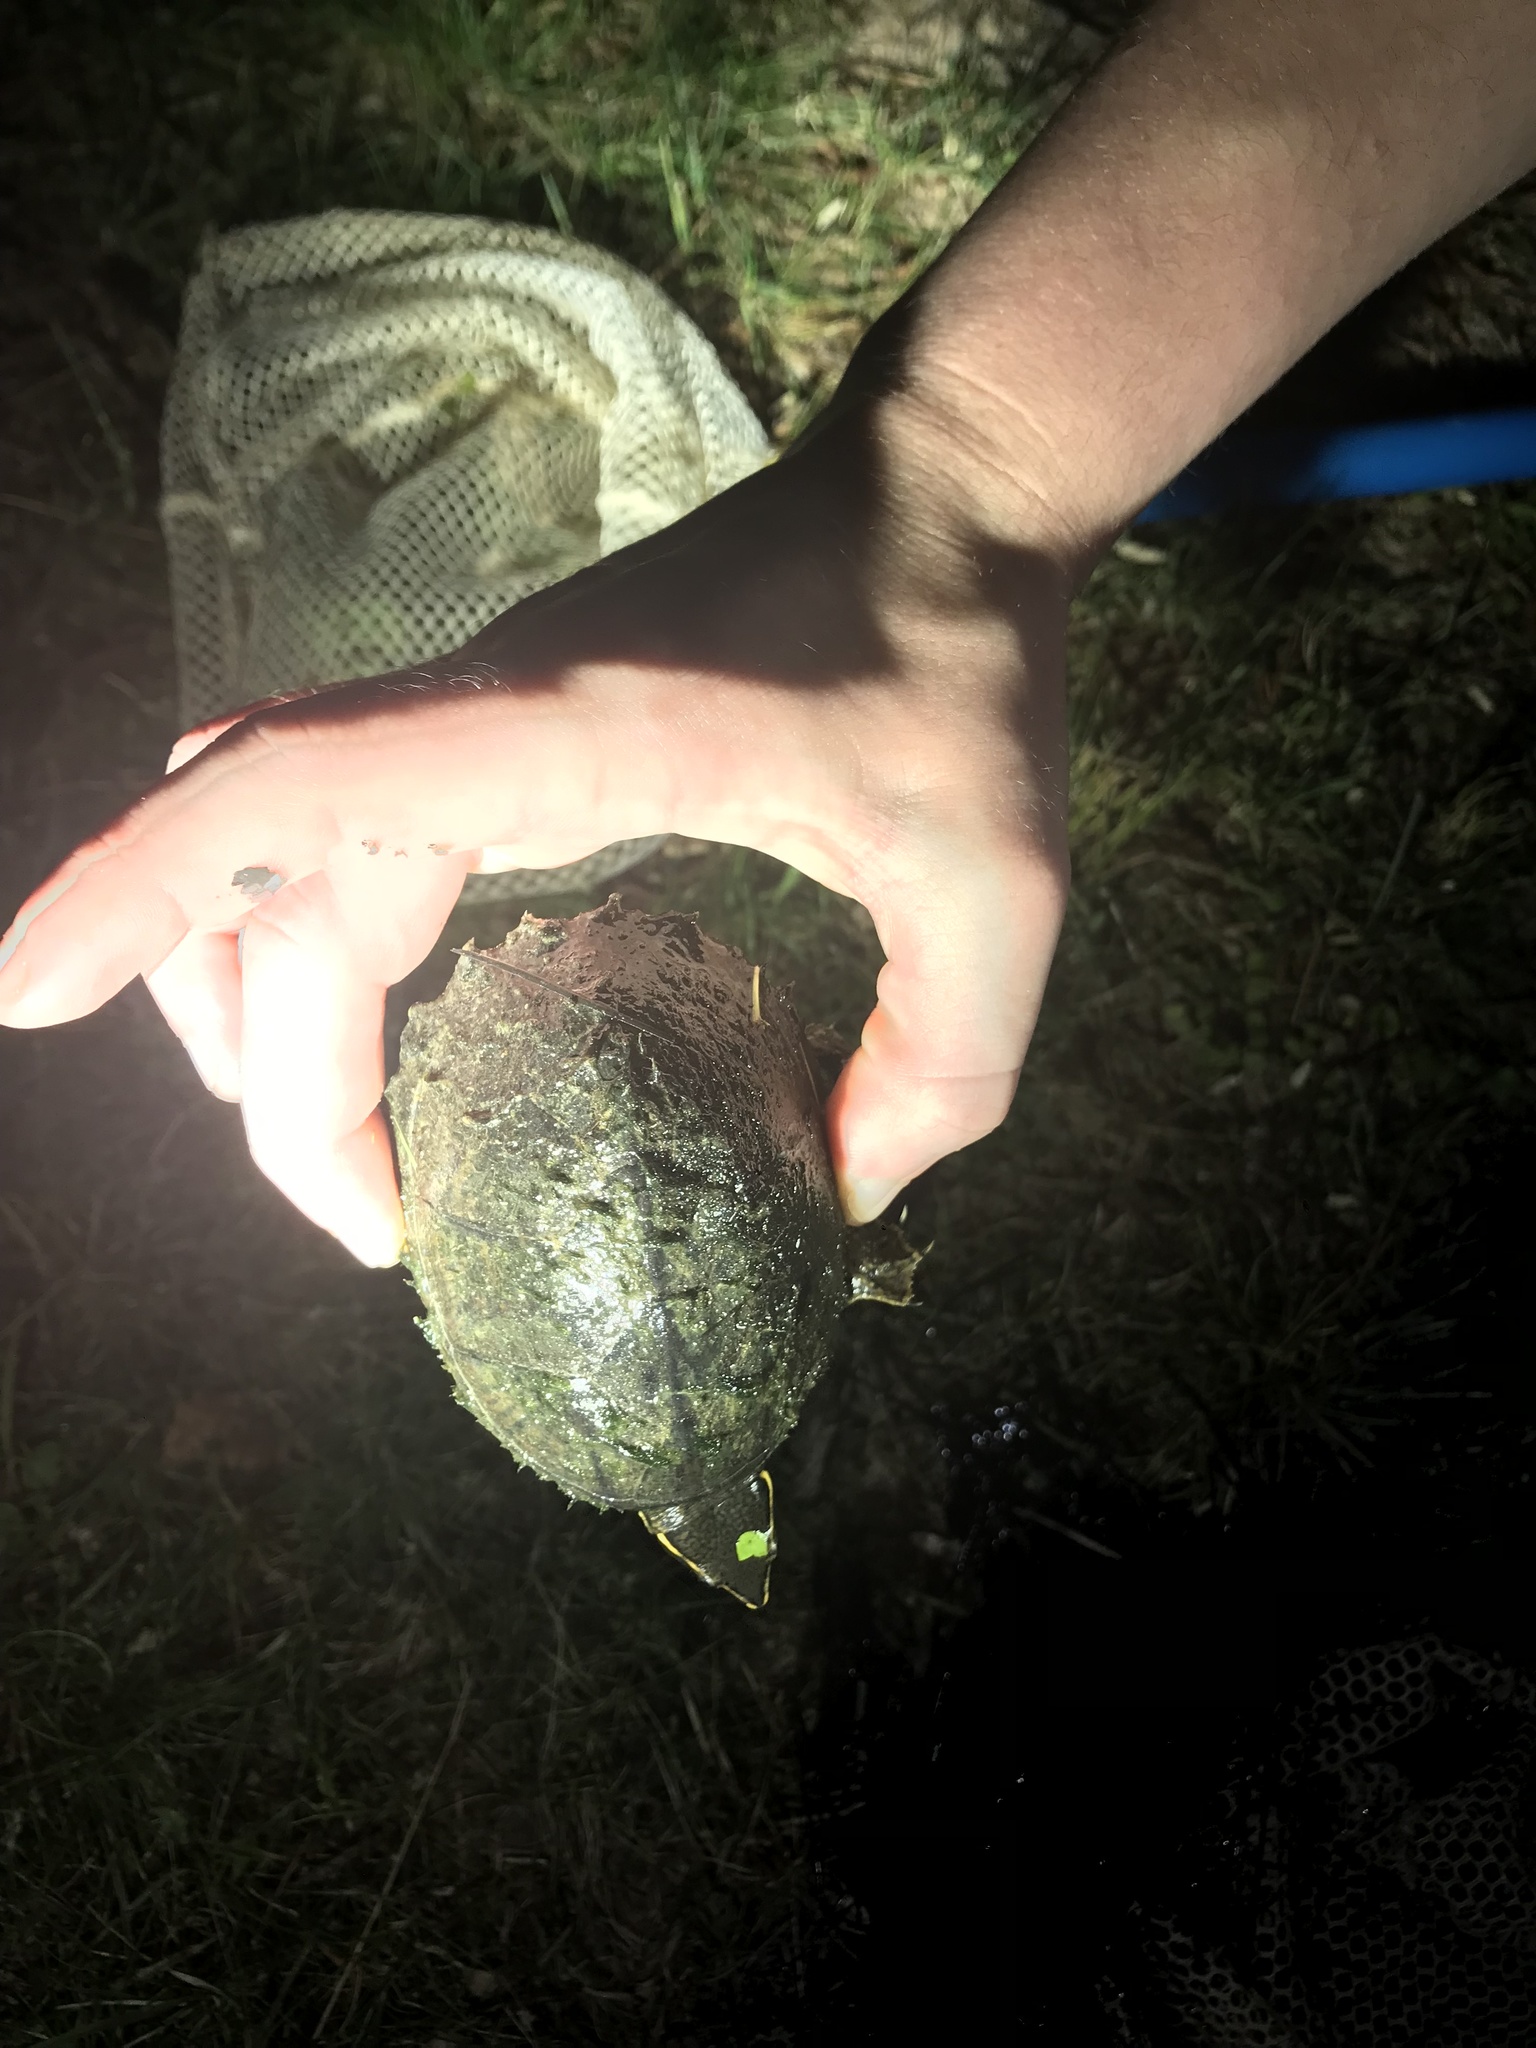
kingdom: Animalia
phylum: Chordata
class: Testudines
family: Kinosternidae
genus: Sternotherus
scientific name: Sternotherus odoratus
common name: Common musk turtle
